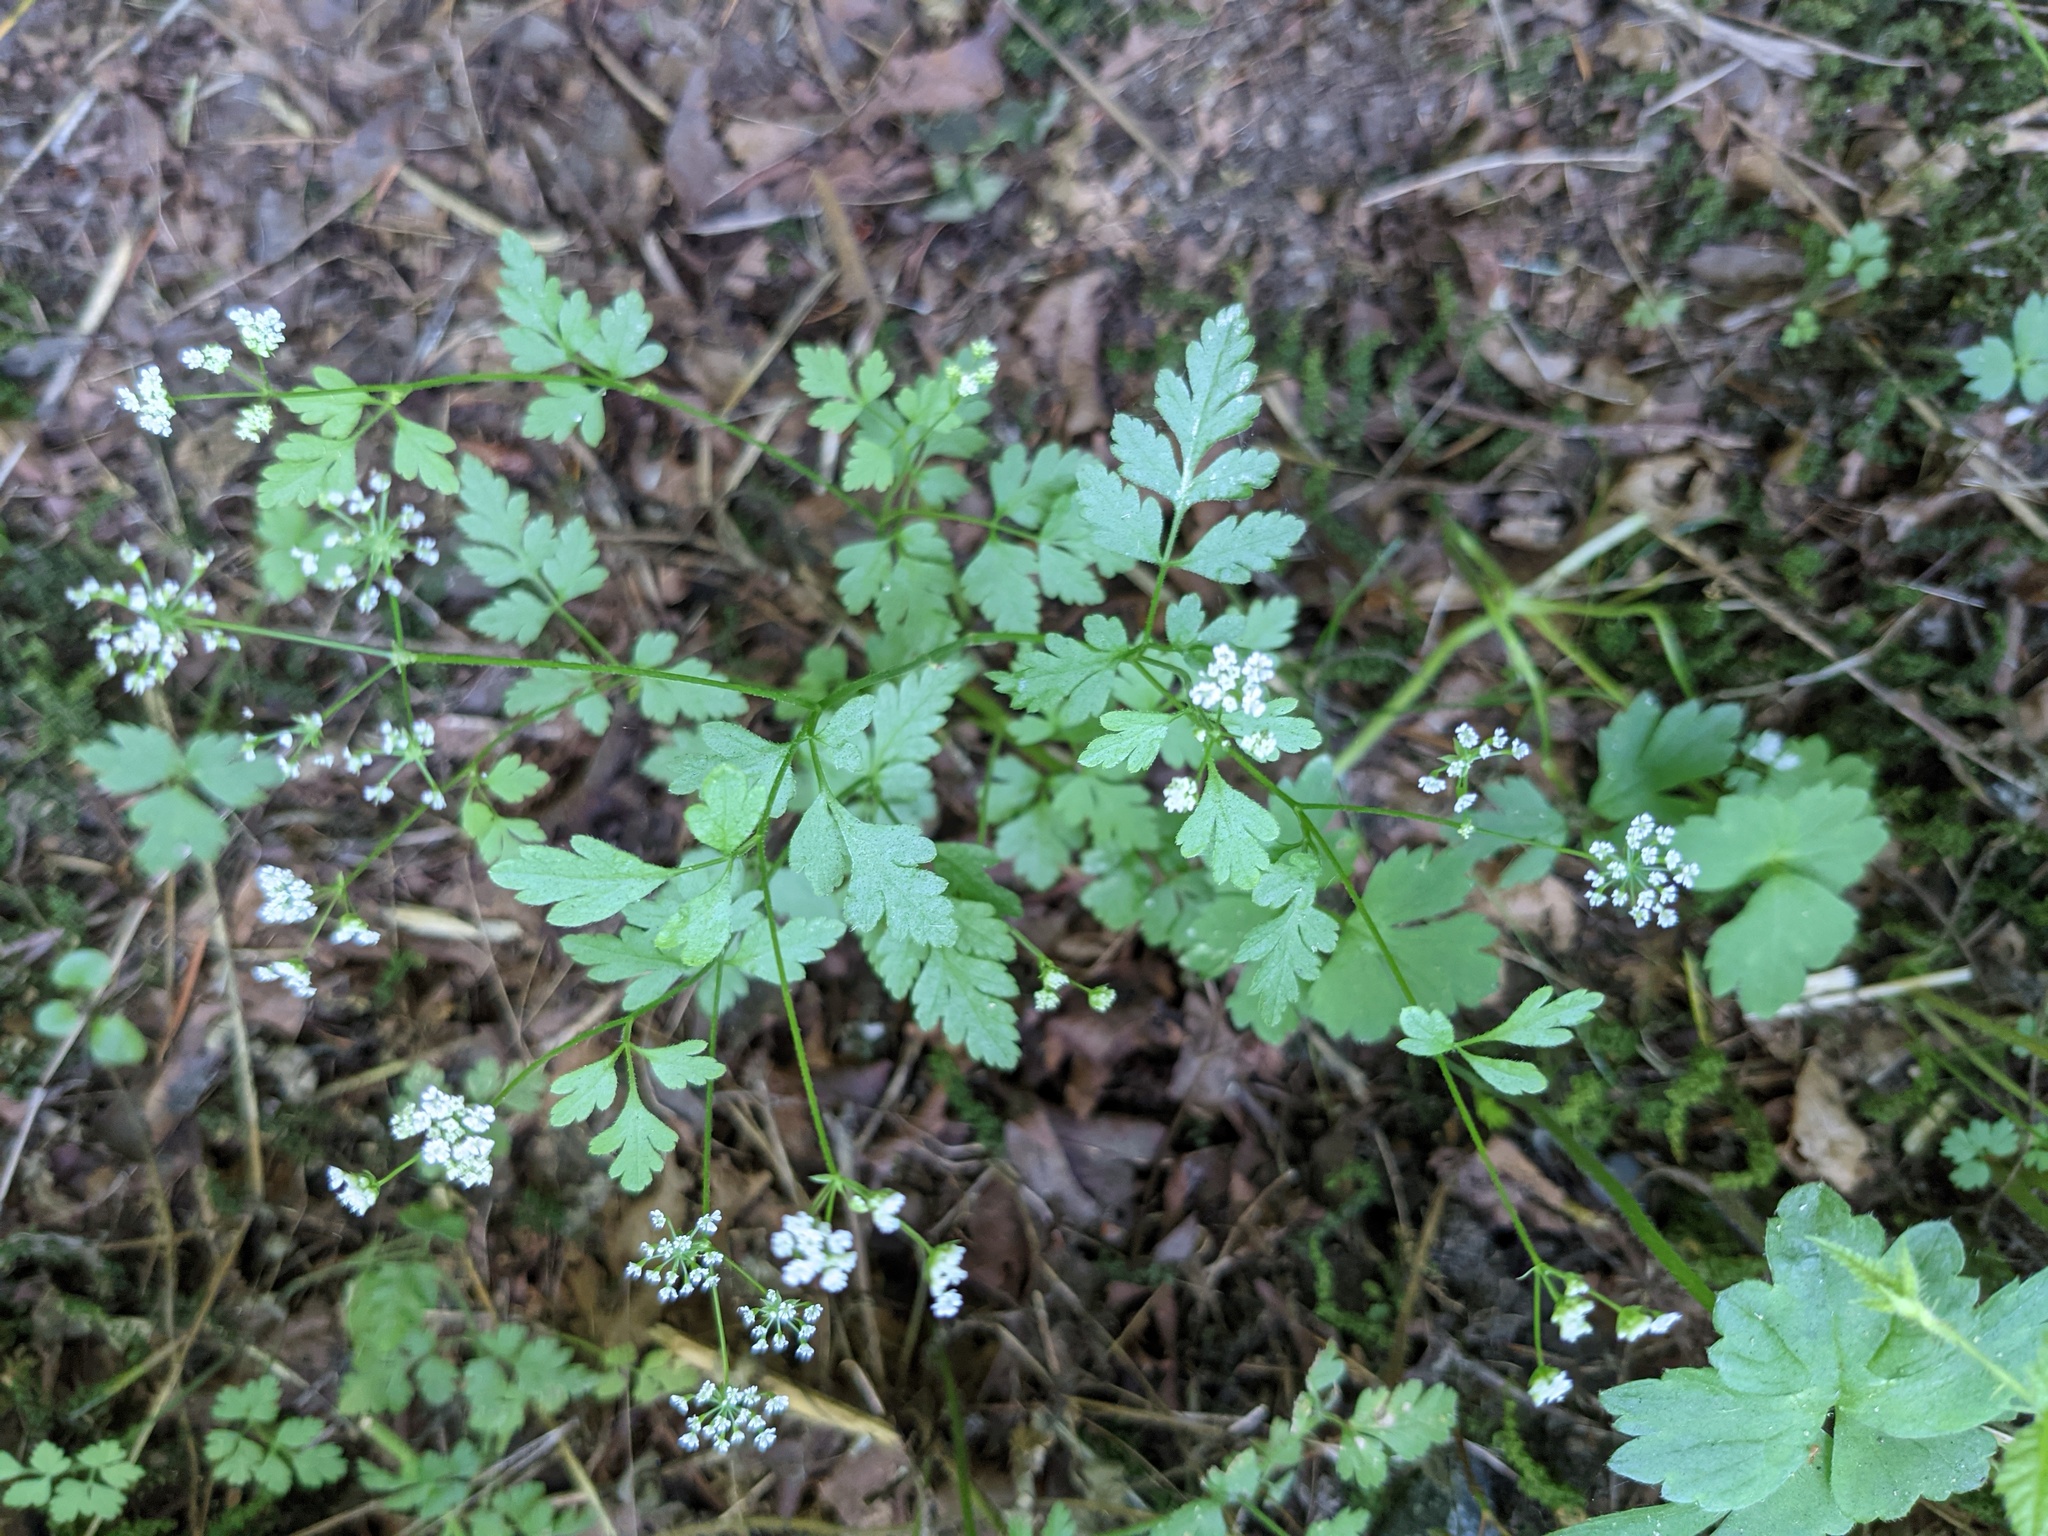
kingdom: Plantae
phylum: Tracheophyta
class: Magnoliopsida
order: Apiales
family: Apiaceae
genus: Chaerophyllum
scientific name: Chaerophyllum temulum
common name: Rough chervil
